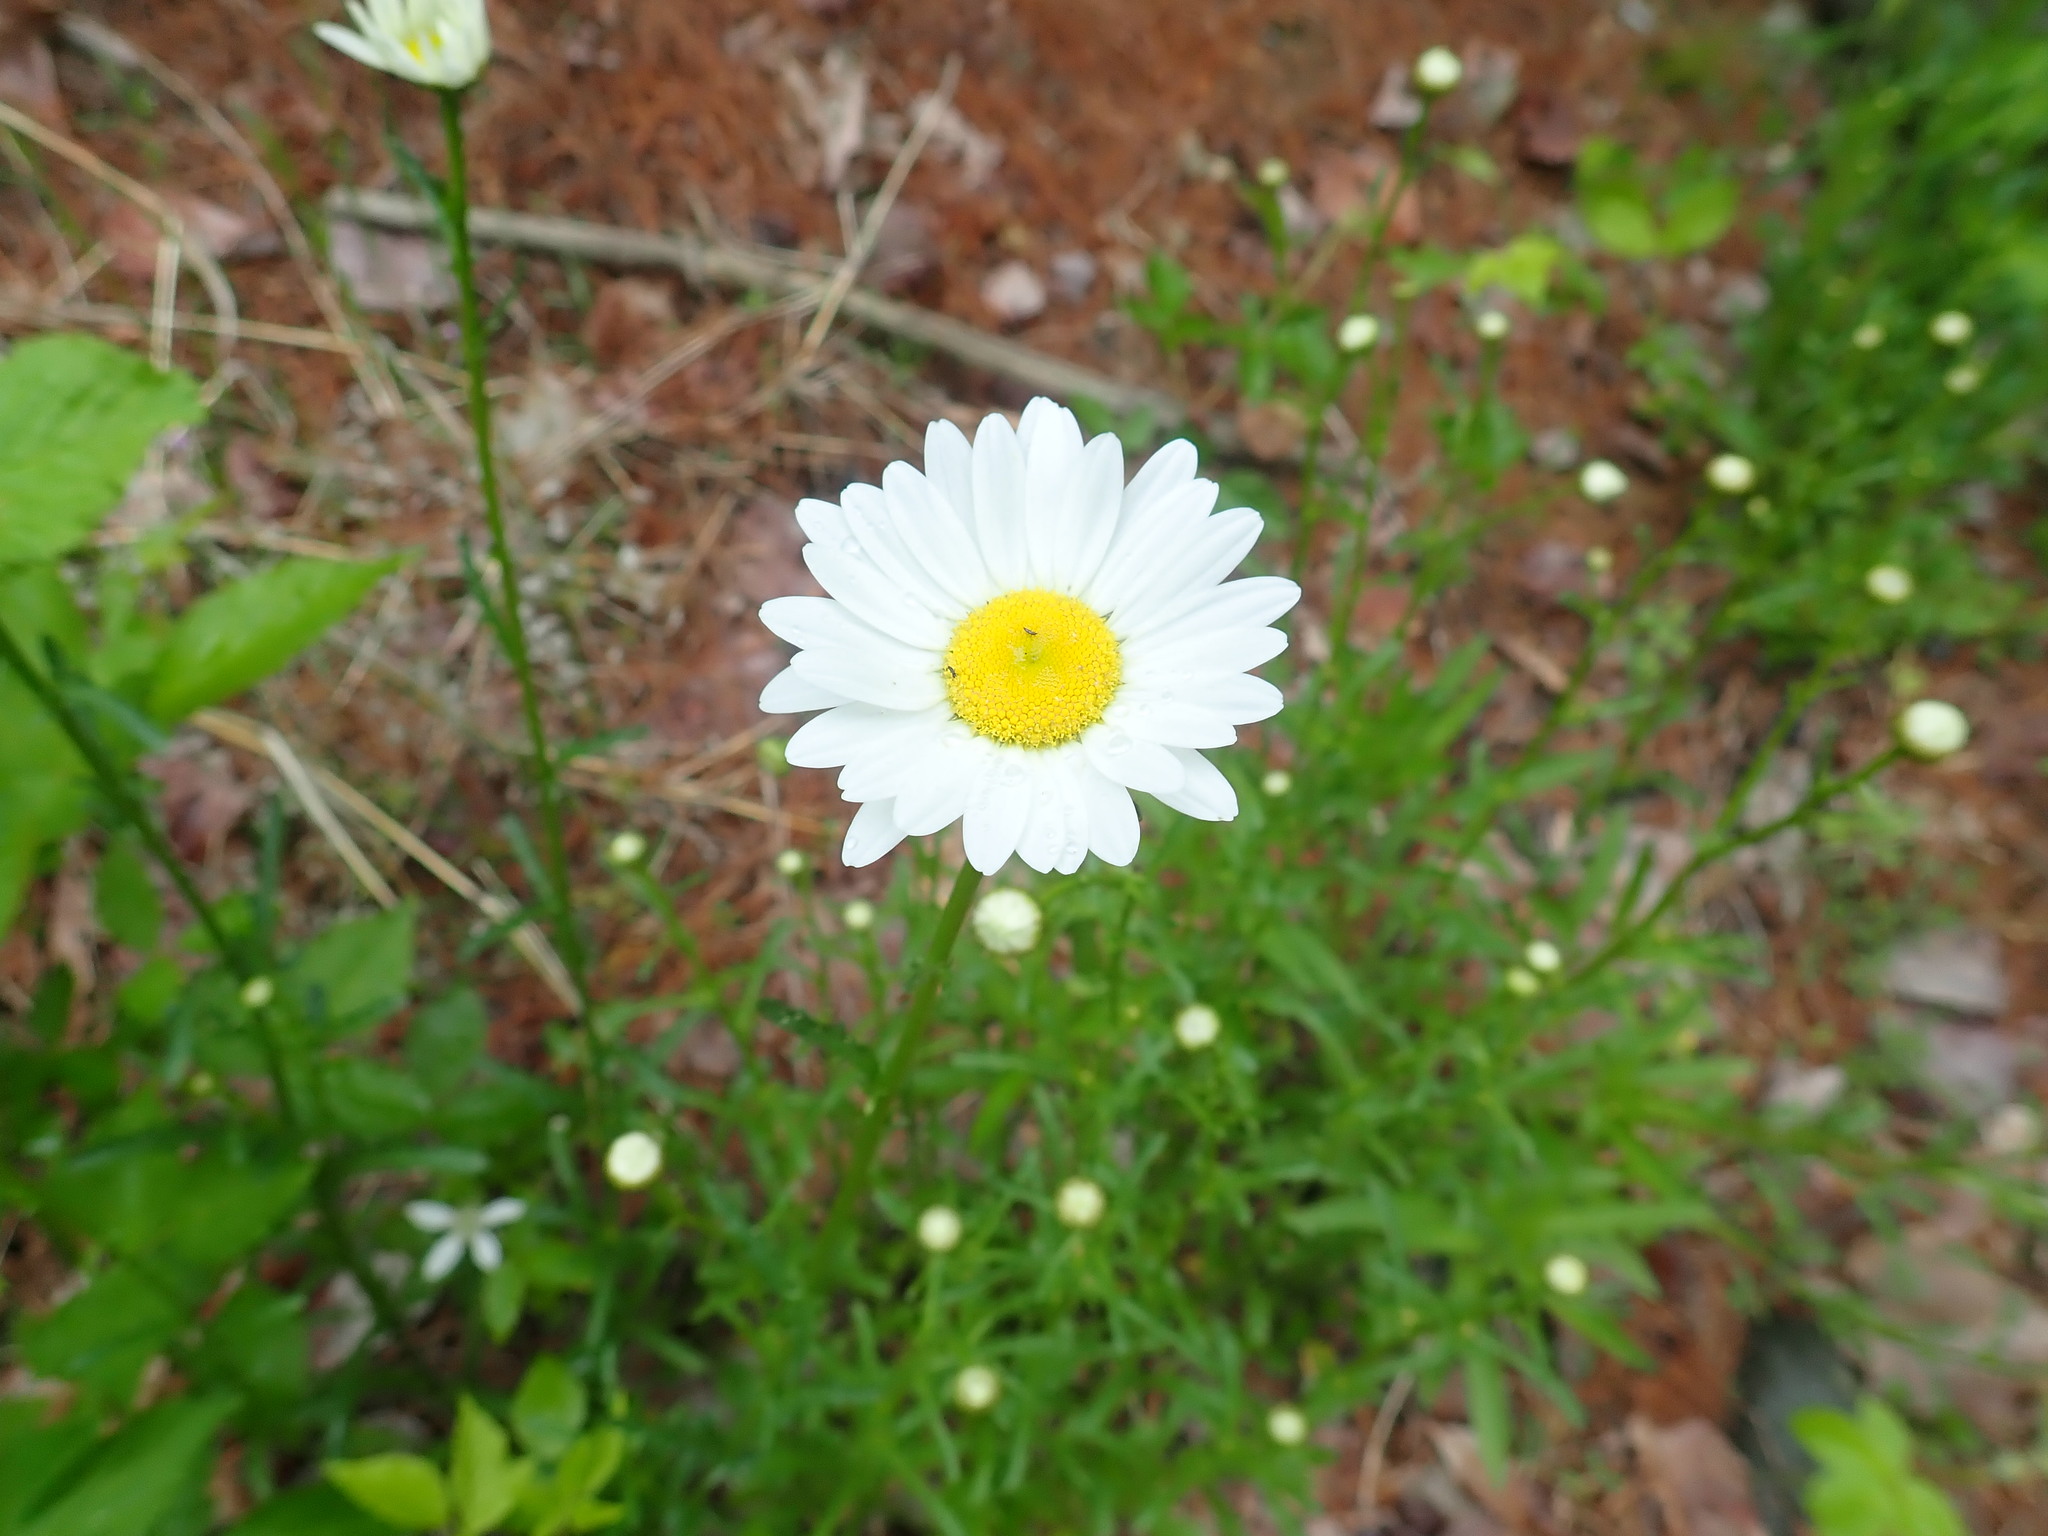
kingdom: Plantae
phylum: Tracheophyta
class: Magnoliopsida
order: Asterales
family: Asteraceae
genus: Leucanthemum
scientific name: Leucanthemum vulgare
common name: Oxeye daisy
